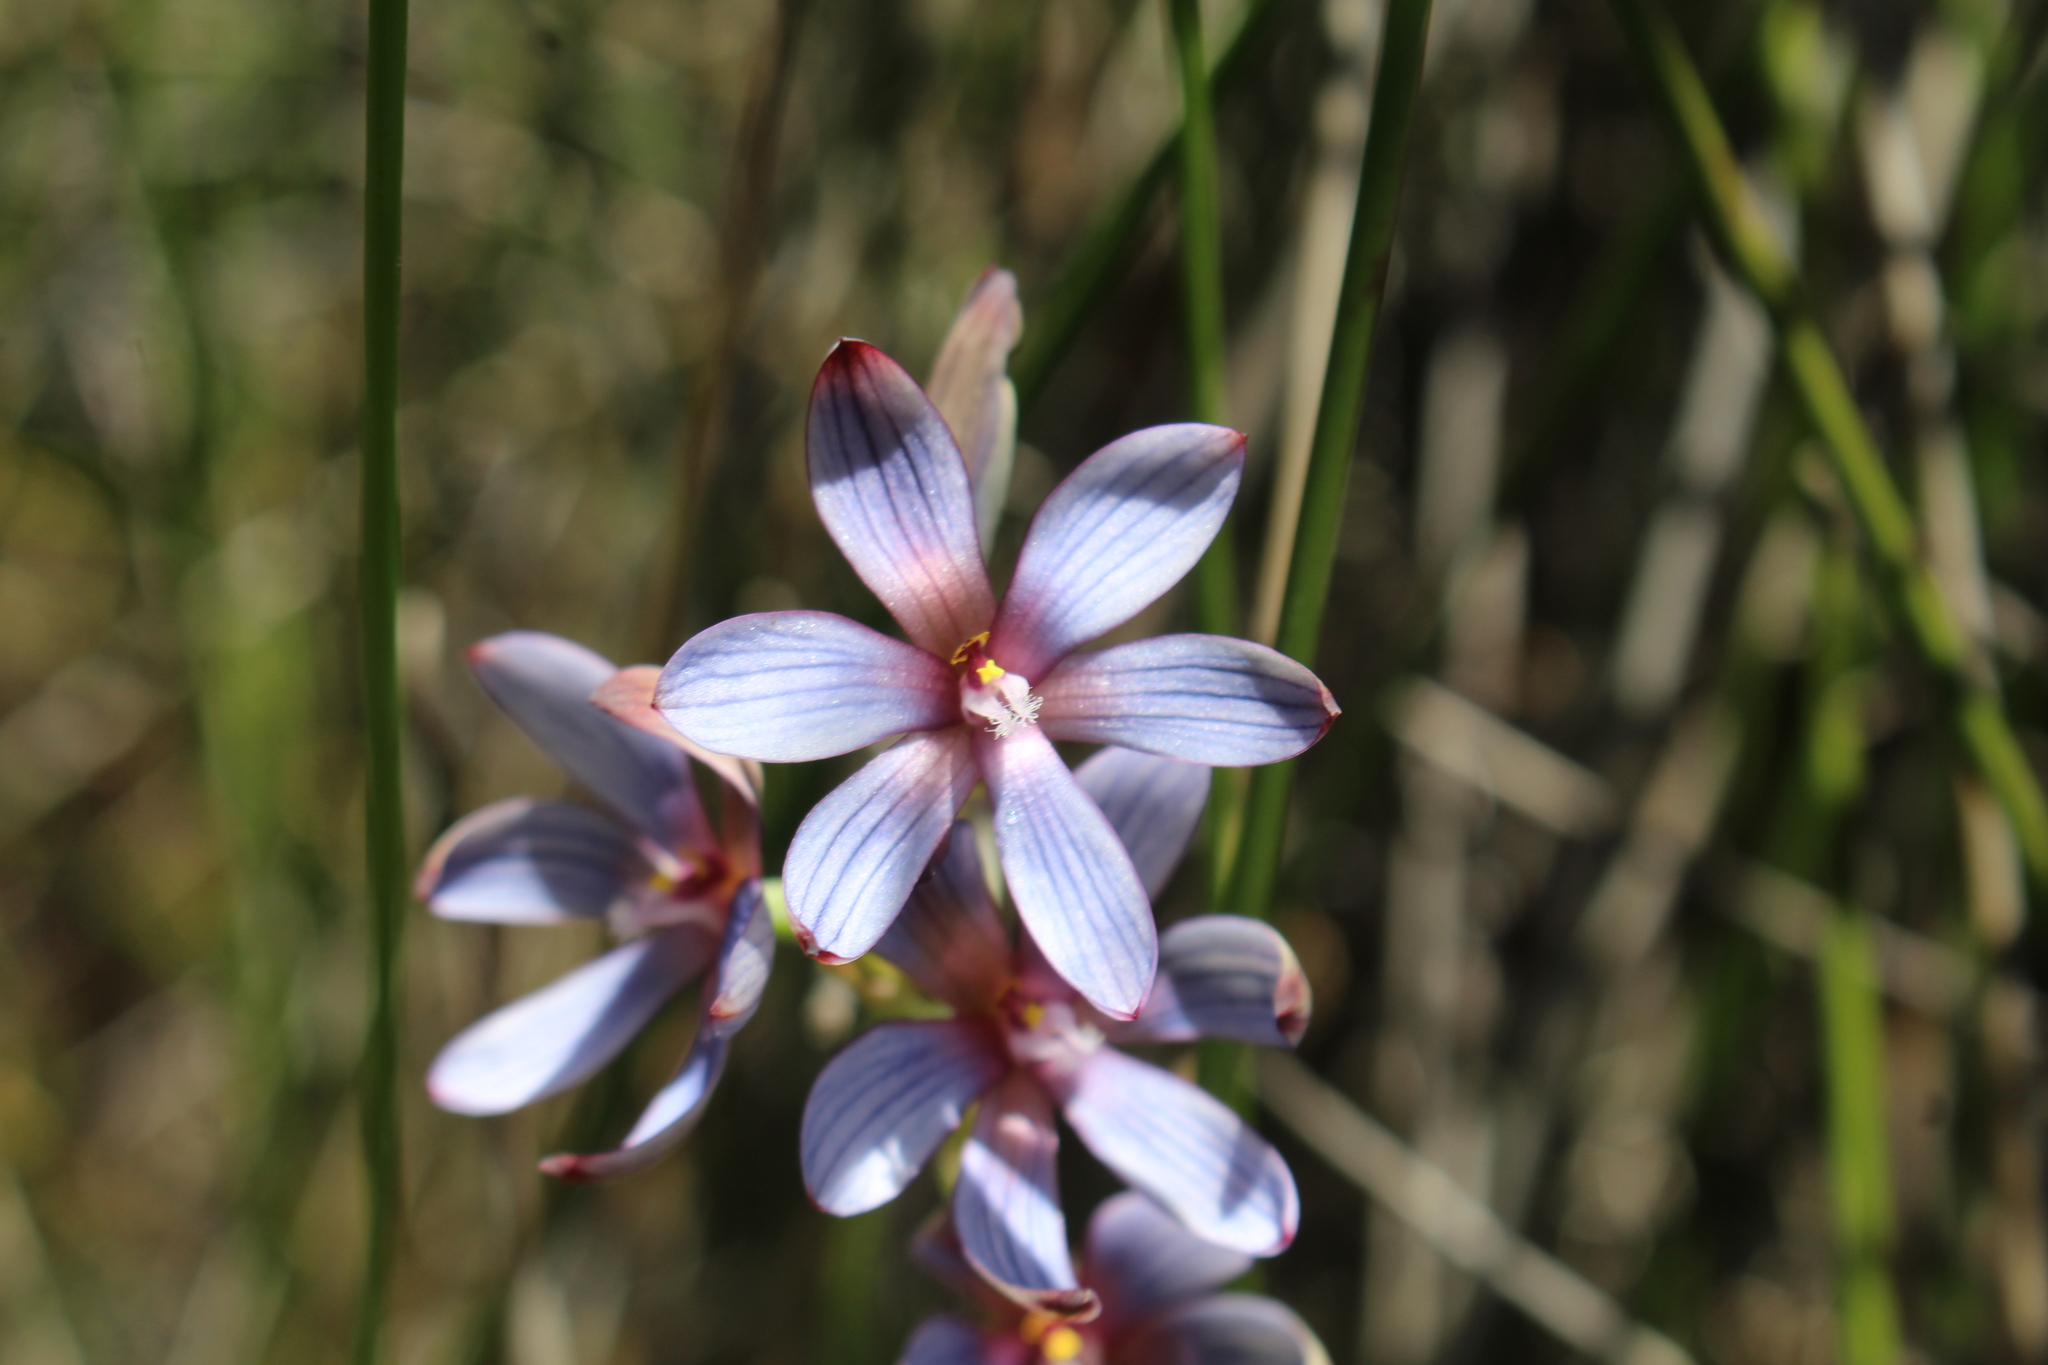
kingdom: Plantae
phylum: Tracheophyta
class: Liliopsida
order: Asparagales
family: Orchidaceae
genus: Thelymitra
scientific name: Thelymitra canaliculata
